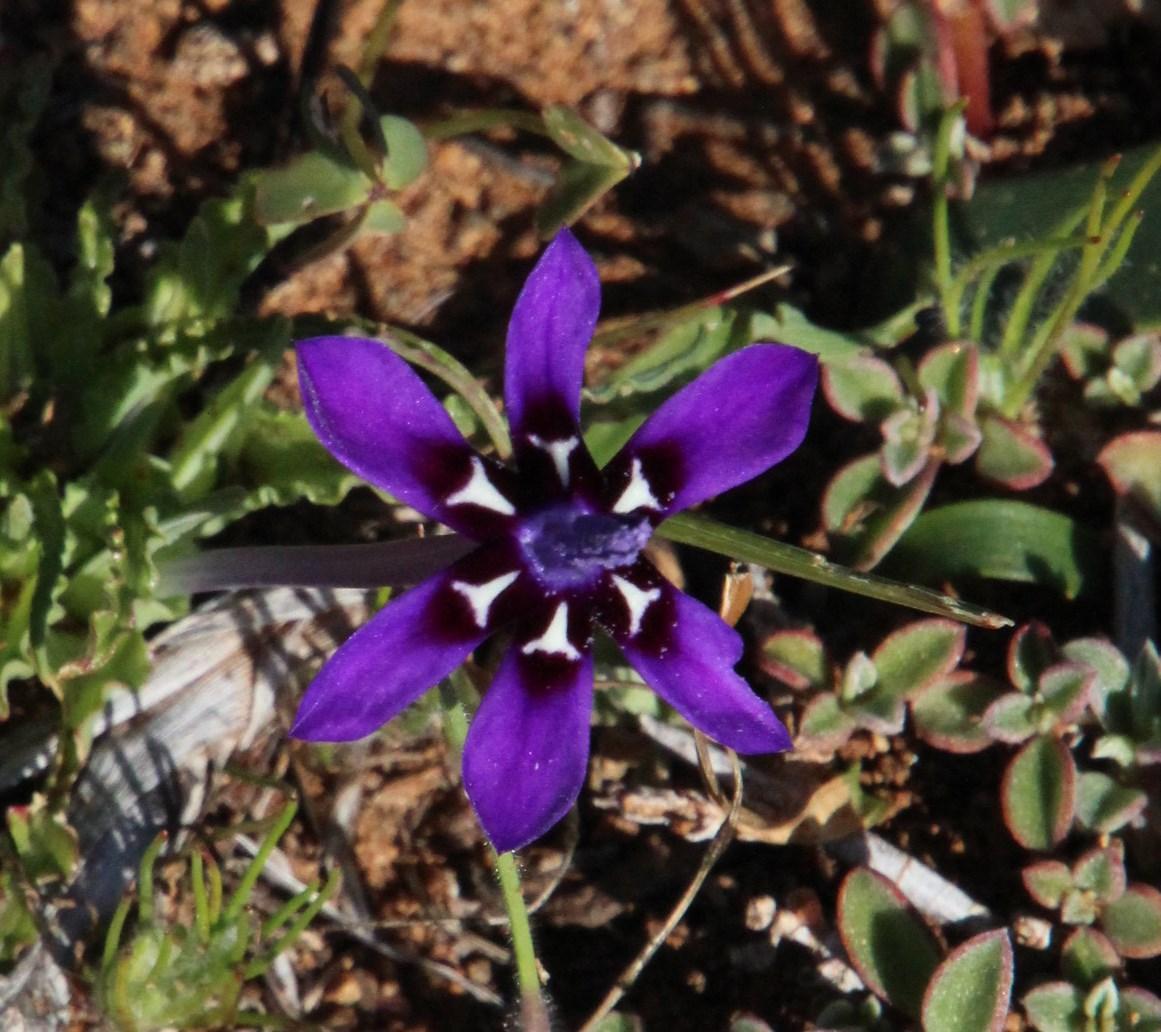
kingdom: Plantae
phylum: Tracheophyta
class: Liliopsida
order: Asparagales
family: Iridaceae
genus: Lapeirousia
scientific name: Lapeirousia oreogena
